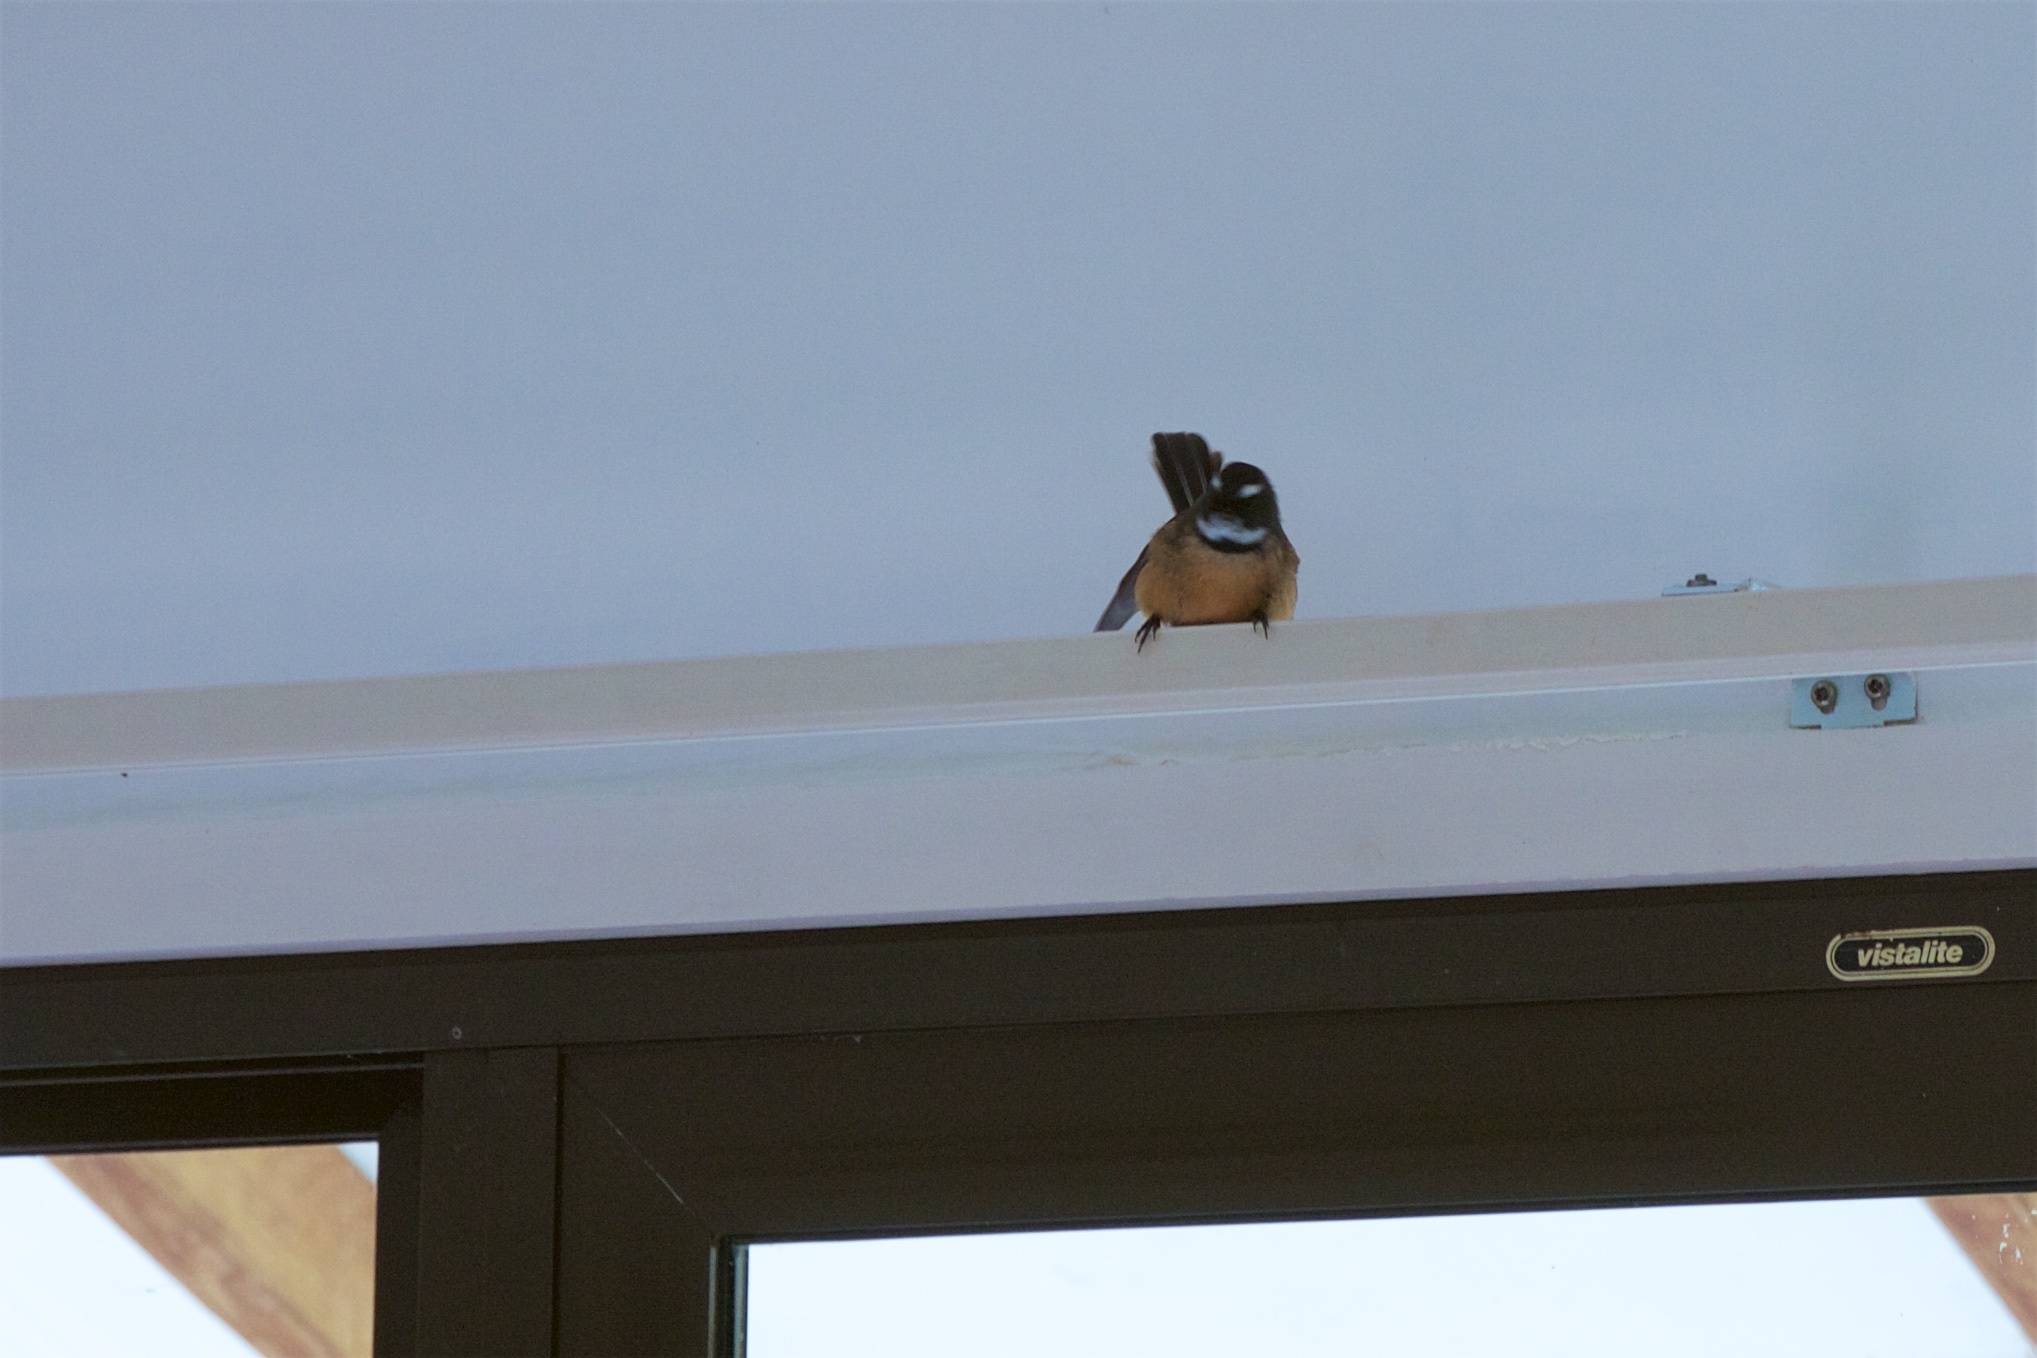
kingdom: Animalia
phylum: Chordata
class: Aves
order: Passeriformes
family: Rhipiduridae
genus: Rhipidura
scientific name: Rhipidura fuliginosa
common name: New zealand fantail
